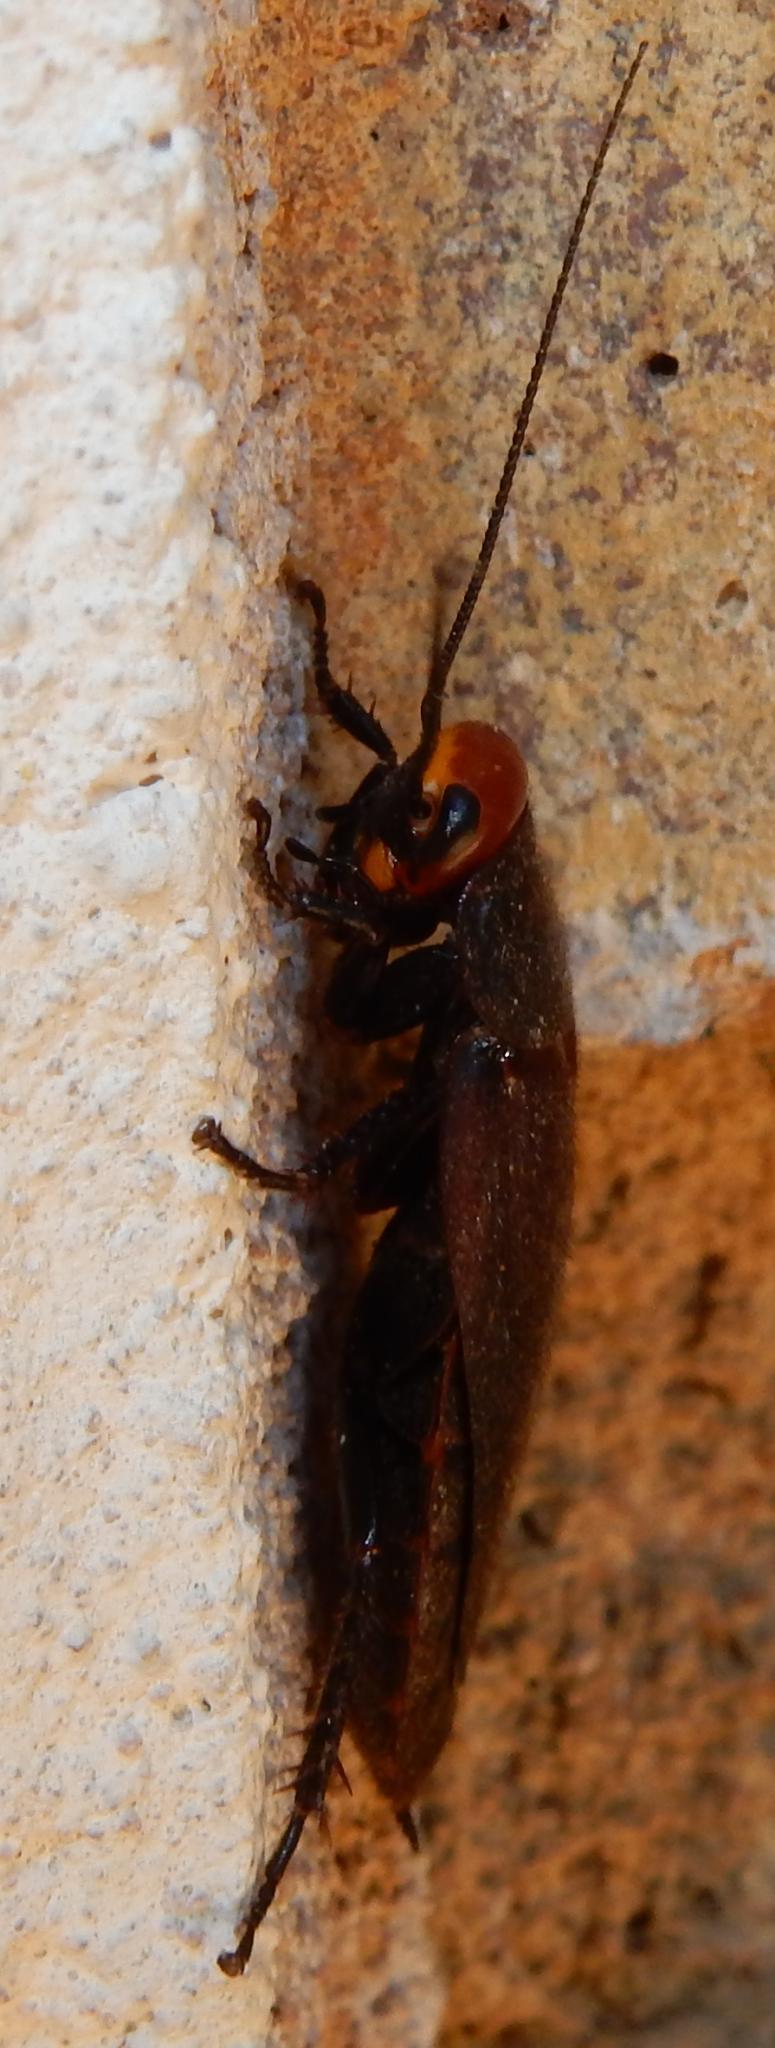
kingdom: Animalia
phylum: Arthropoda
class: Insecta
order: Blattodea
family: Blaberidae
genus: Oxyhaloa
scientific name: Oxyhaloa deusta
